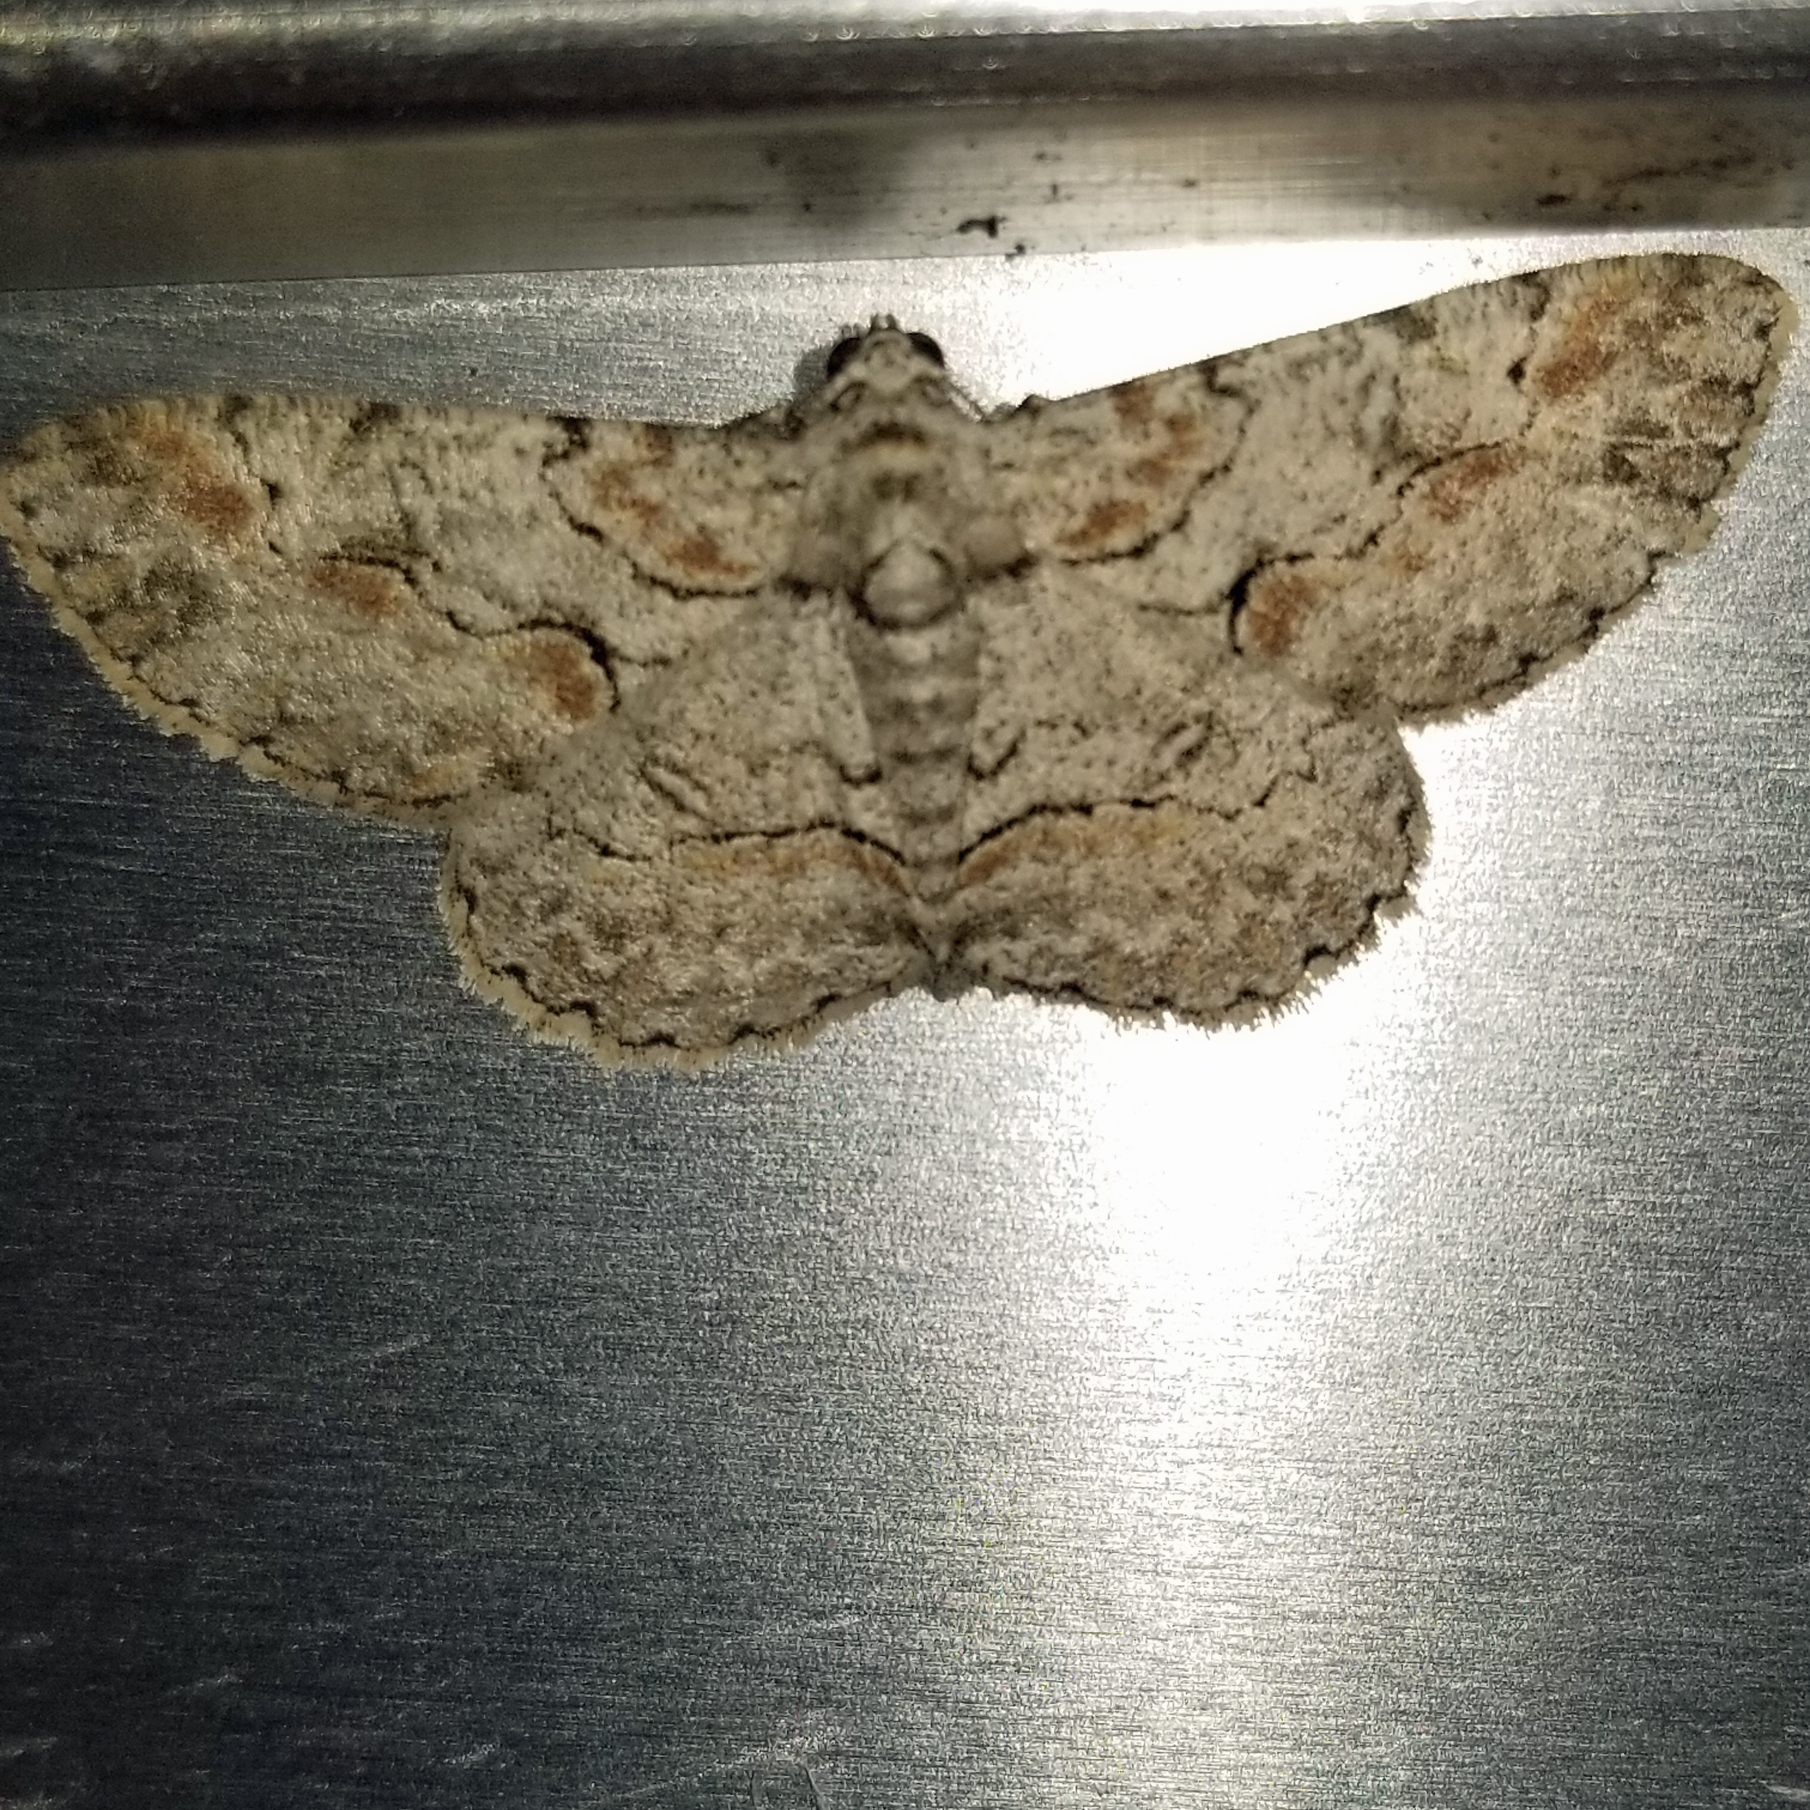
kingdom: Animalia
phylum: Arthropoda
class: Insecta
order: Lepidoptera
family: Geometridae
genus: Iridopsis
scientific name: Iridopsis defectaria
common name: Brown-shaded gray
